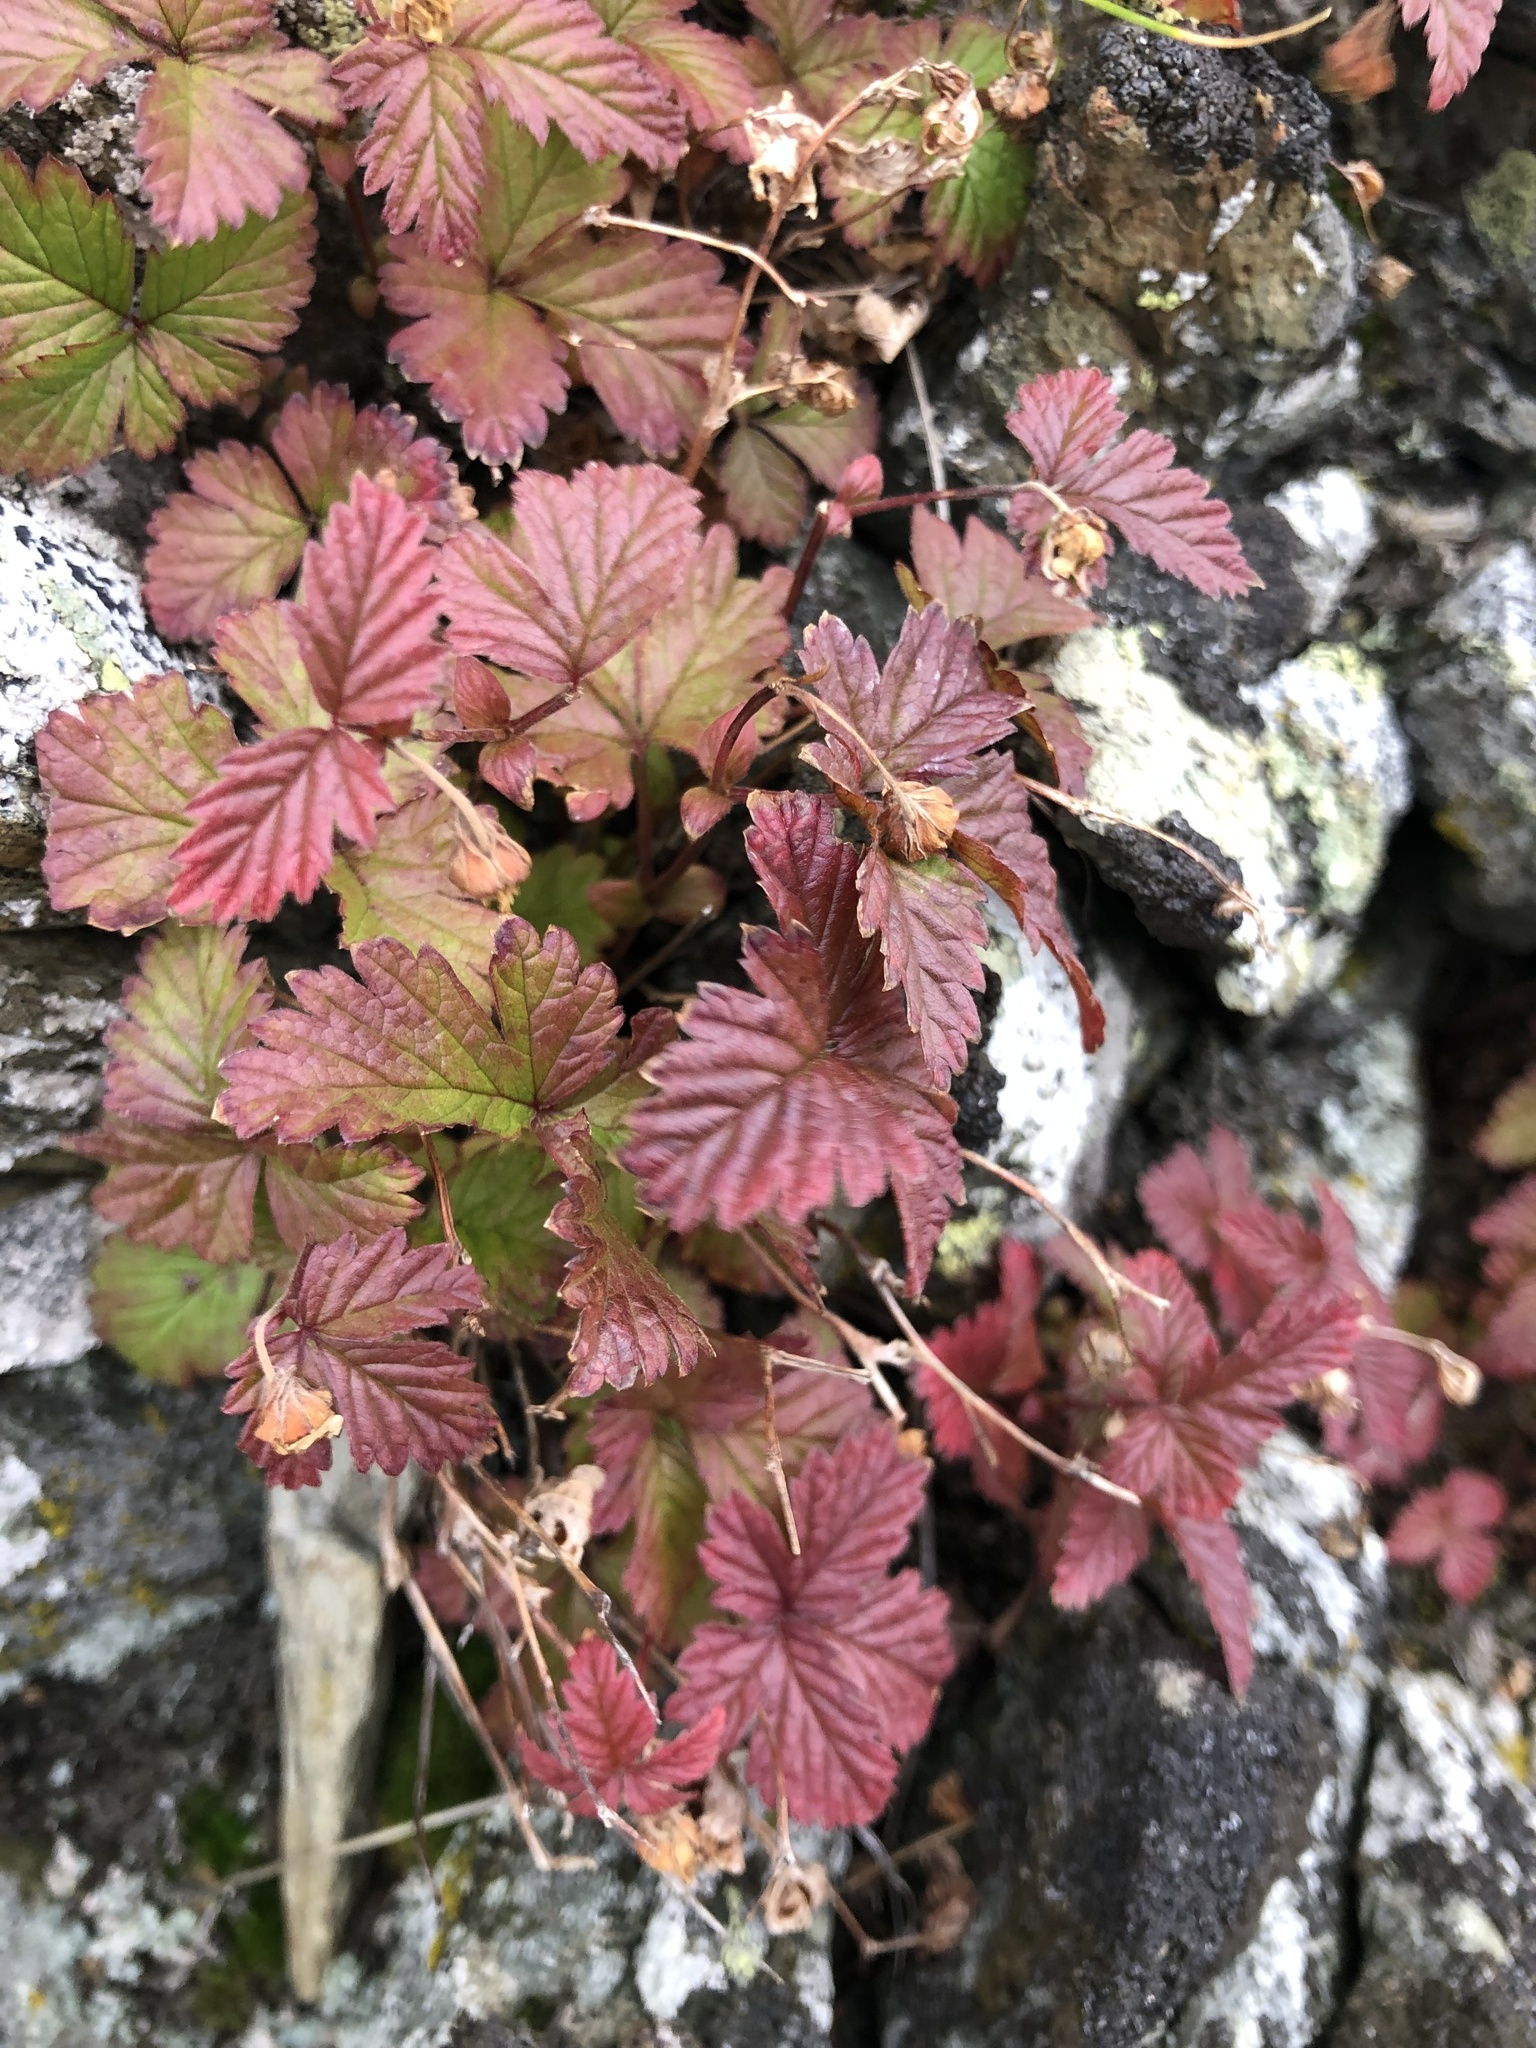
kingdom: Plantae
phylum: Tracheophyta
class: Magnoliopsida
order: Rosales
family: Rosaceae
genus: Rubus
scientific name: Rubus arcticus
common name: Arctic bramble
